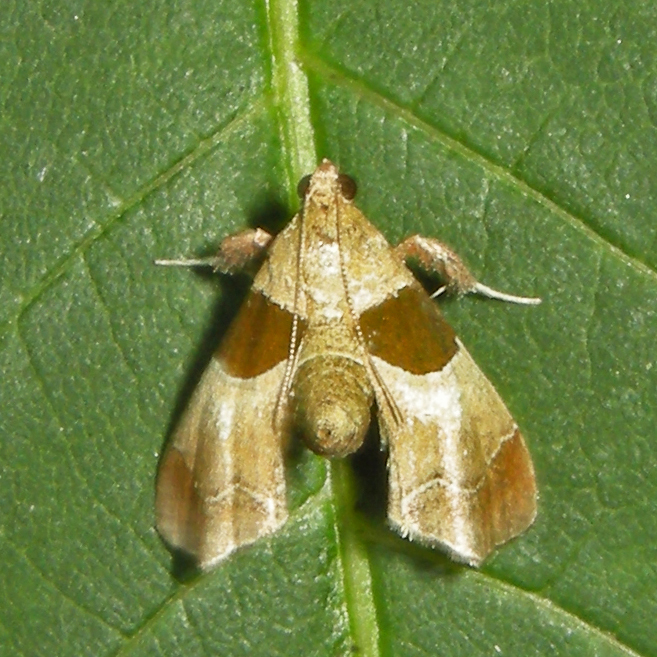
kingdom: Animalia
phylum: Arthropoda
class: Insecta
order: Lepidoptera
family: Pyralidae
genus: Tosale
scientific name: Tosale oviplagalis
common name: Dimorphic tosale moth
